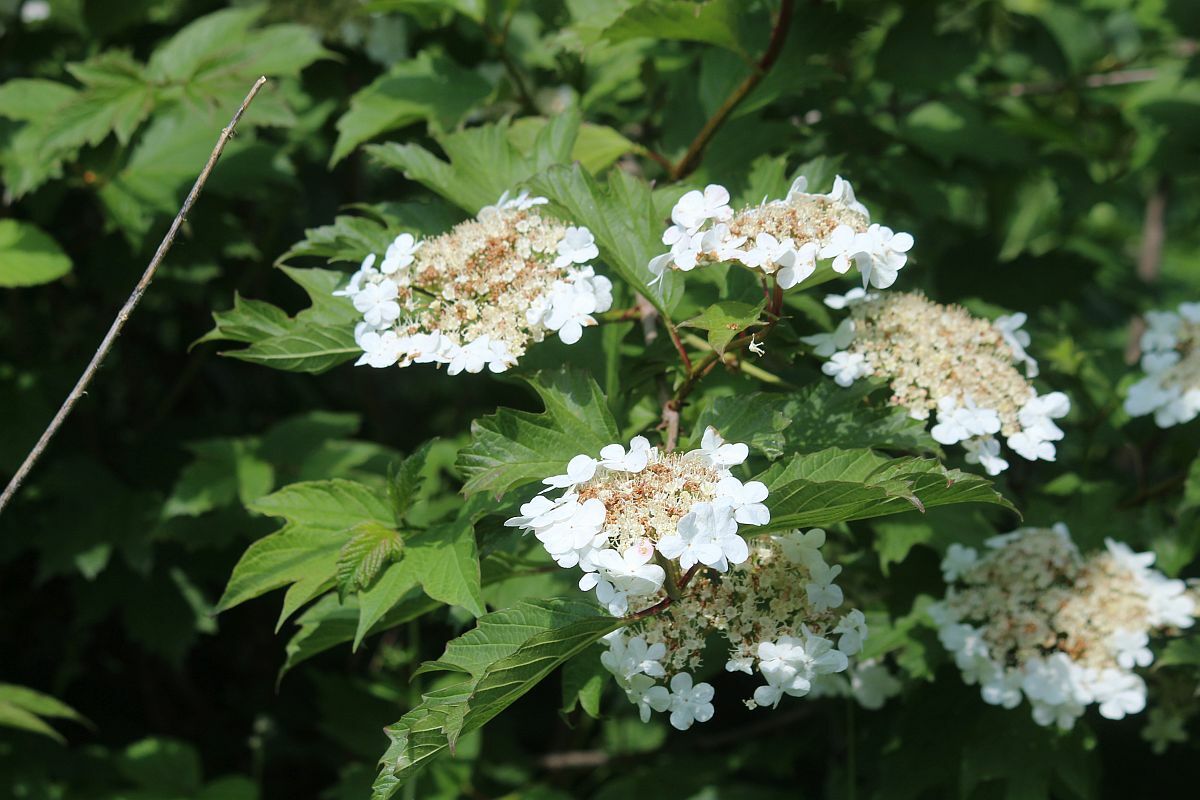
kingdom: Plantae
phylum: Tracheophyta
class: Magnoliopsida
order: Dipsacales
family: Viburnaceae
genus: Viburnum
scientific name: Viburnum opulus
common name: Guelder-rose
